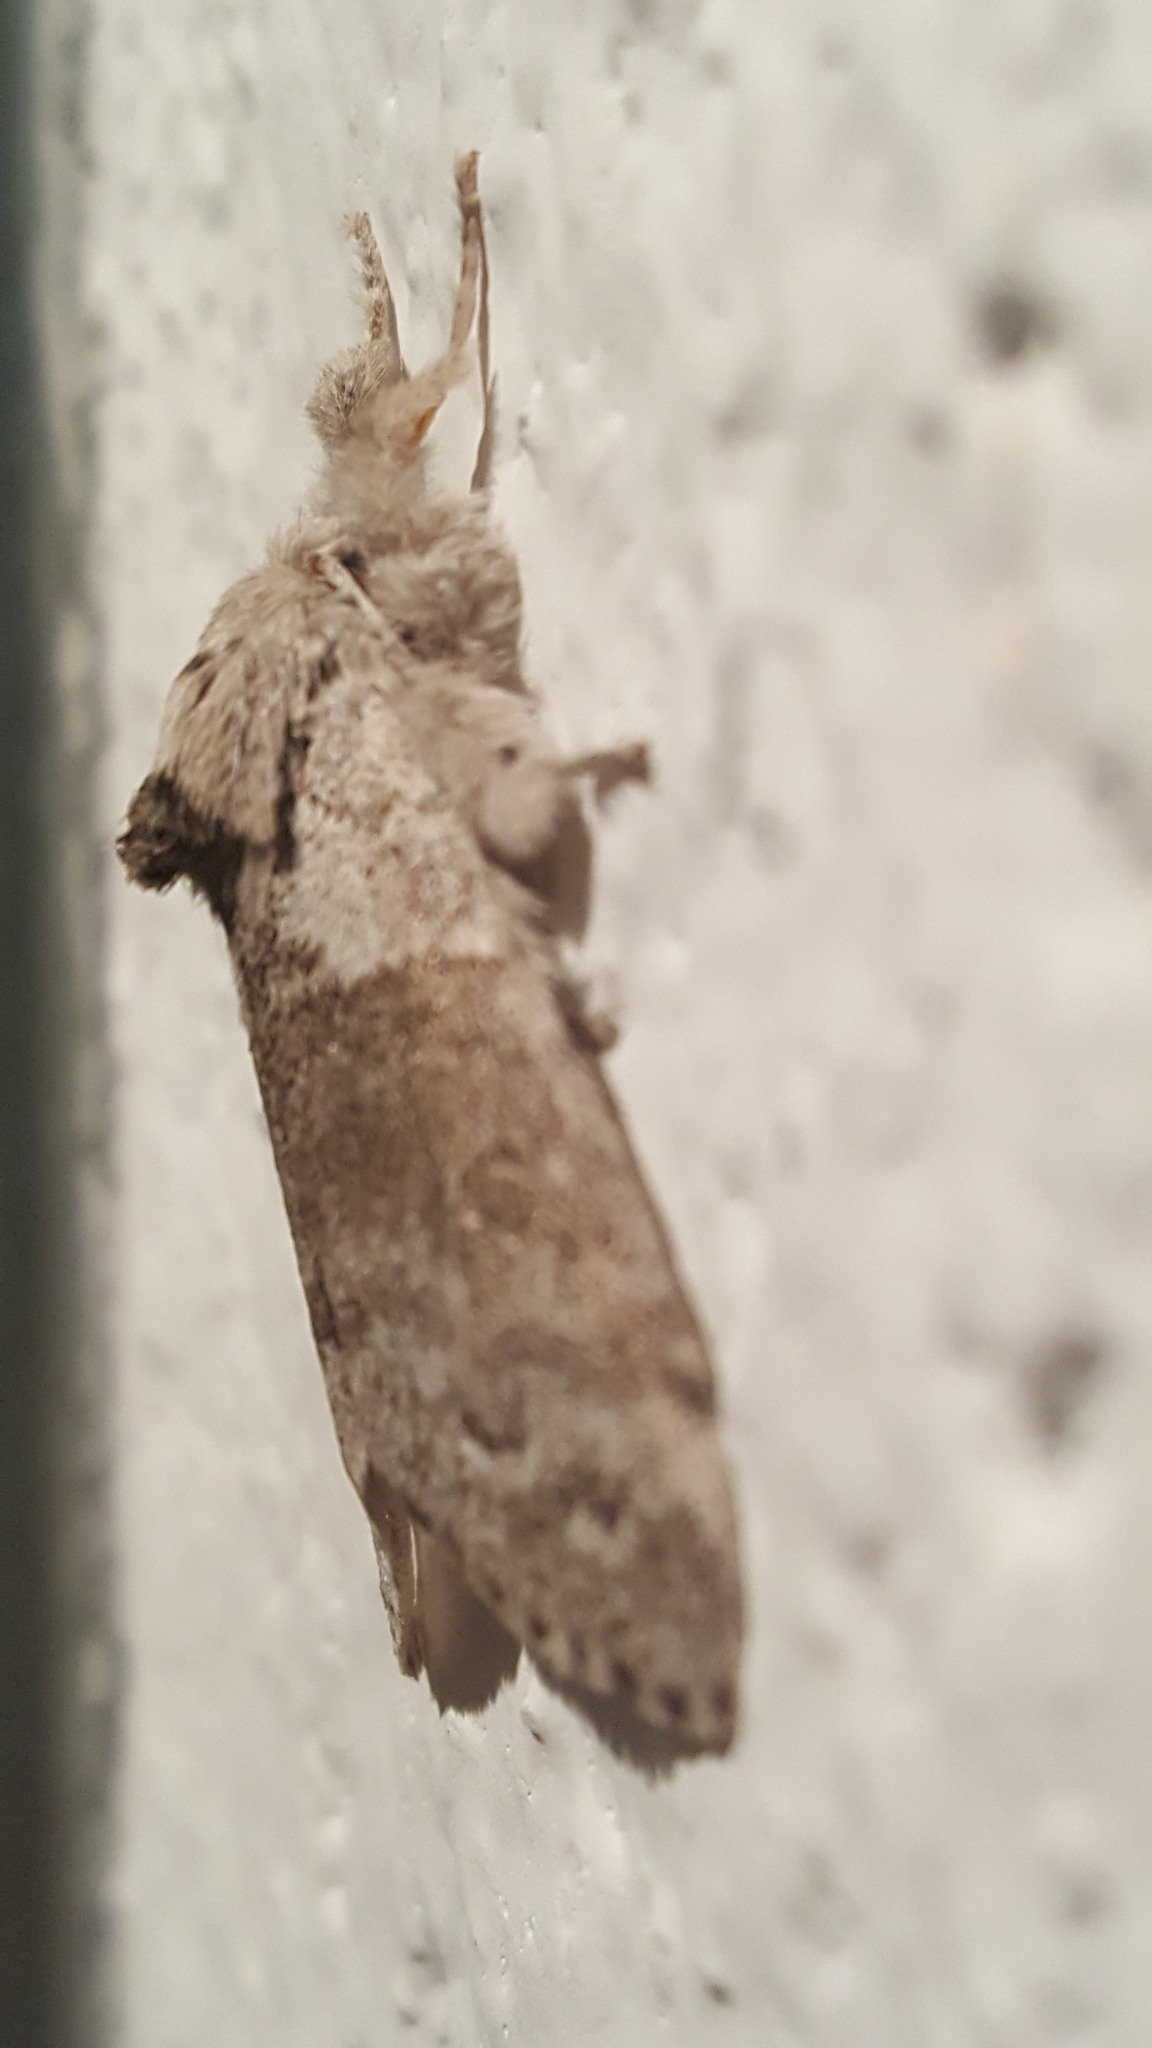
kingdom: Animalia
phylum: Arthropoda
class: Insecta
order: Lepidoptera
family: Erebidae
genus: Calliteara
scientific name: Calliteara pudibunda
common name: Pale tussock
